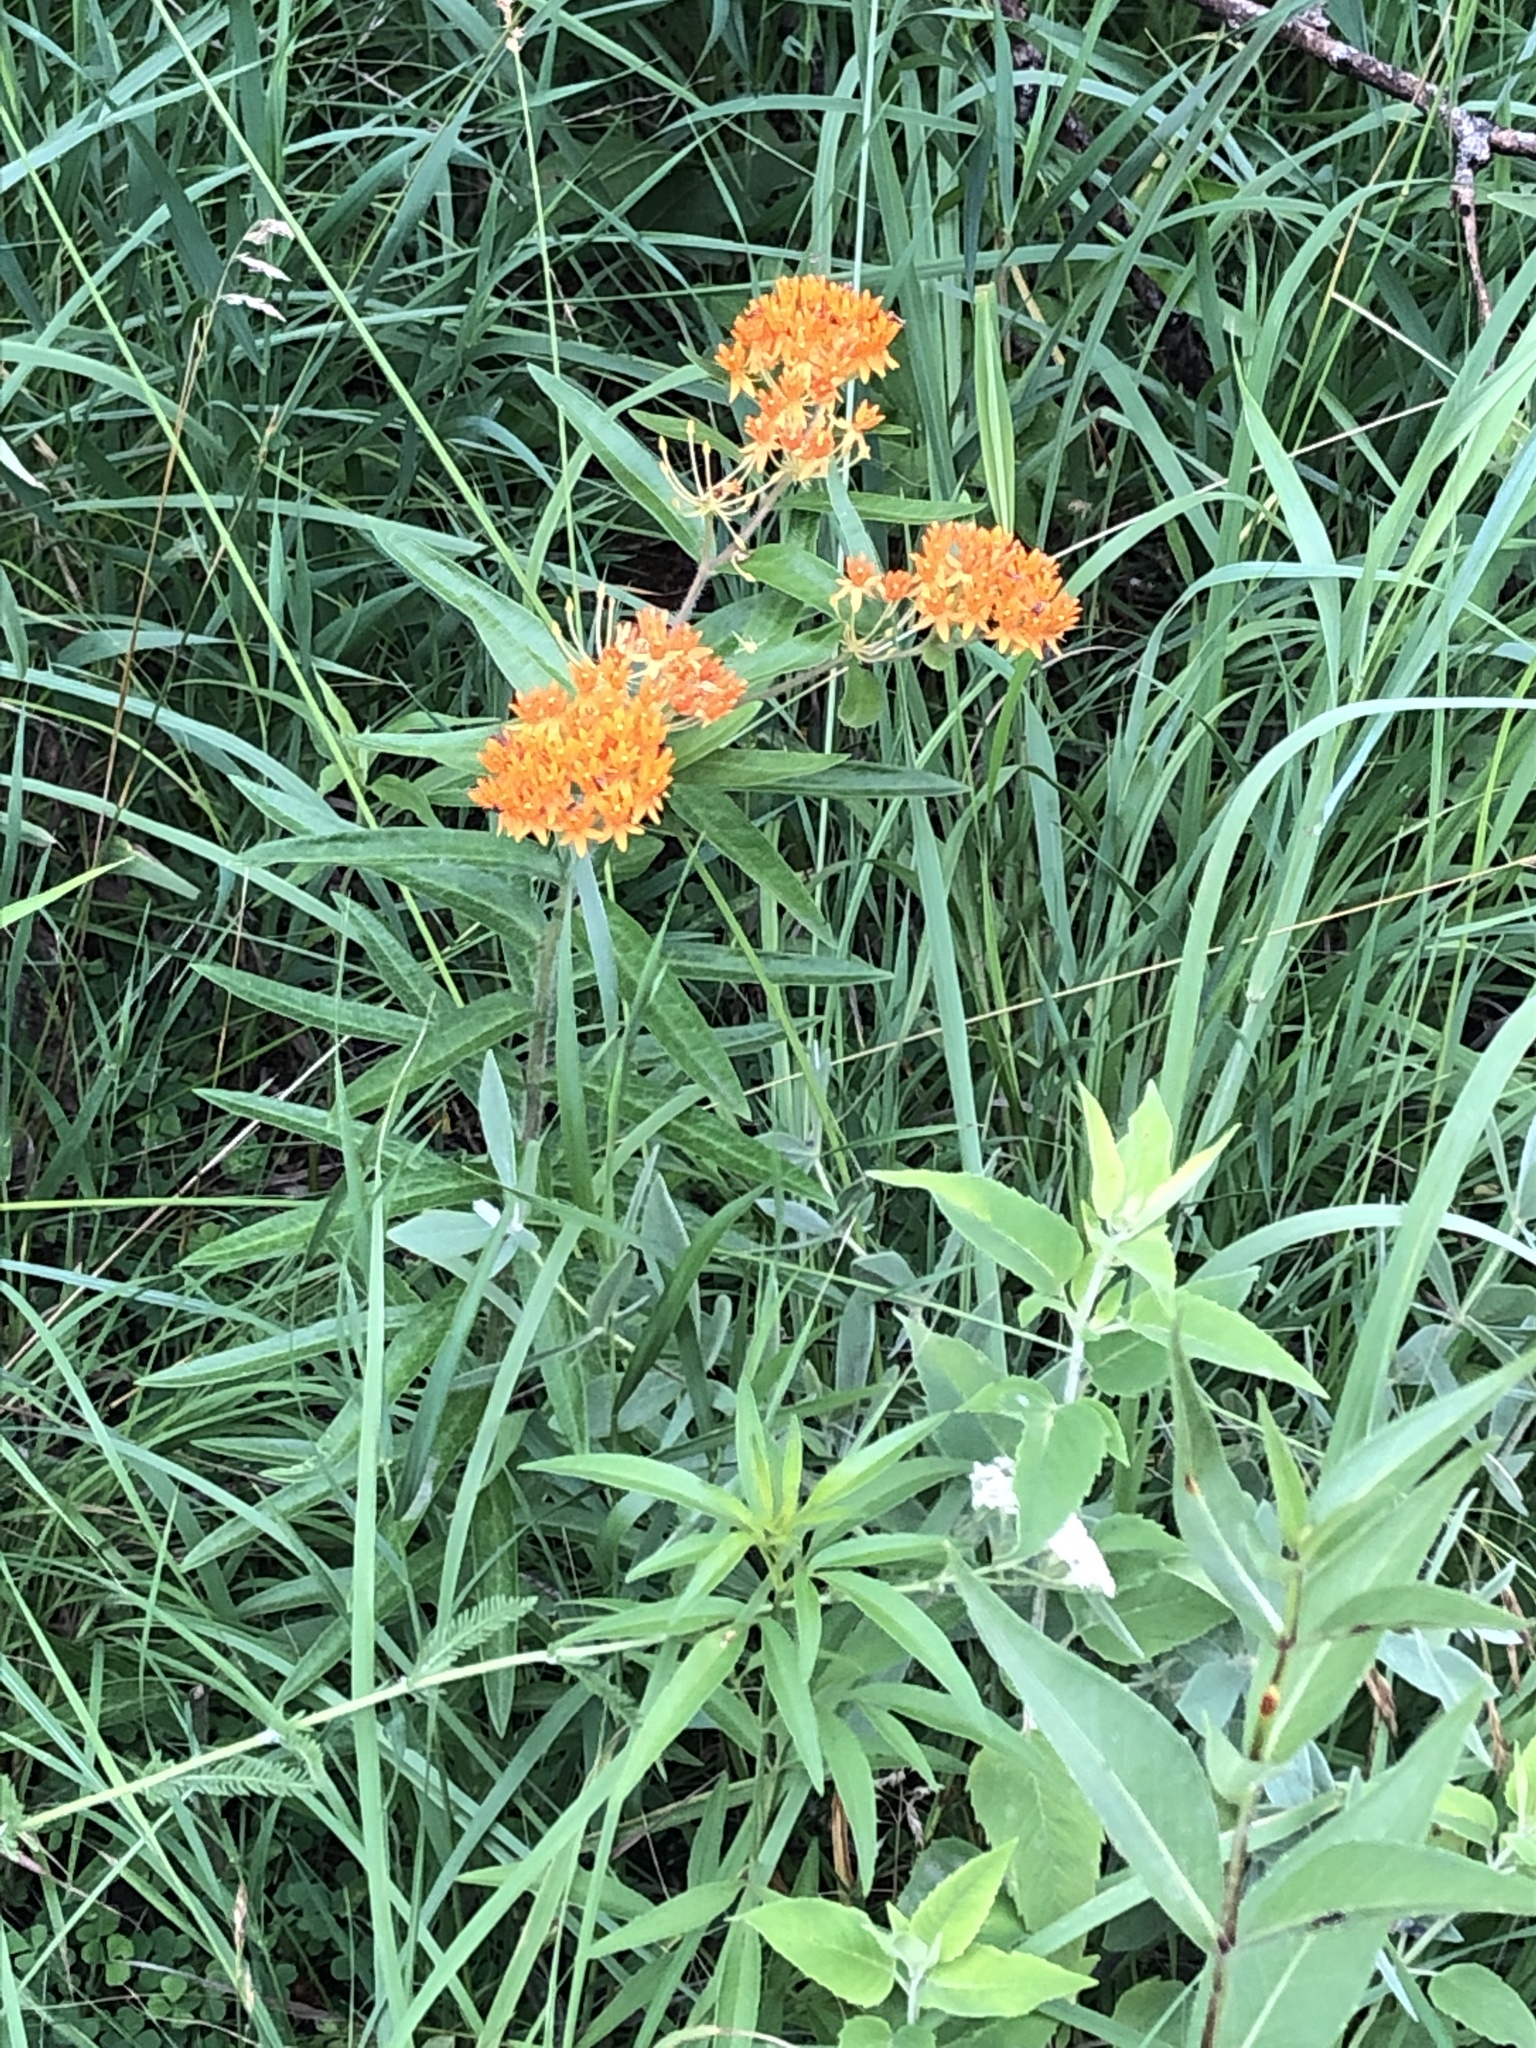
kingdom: Plantae
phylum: Tracheophyta
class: Magnoliopsida
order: Gentianales
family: Apocynaceae
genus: Asclepias
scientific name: Asclepias tuberosa
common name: Butterfly milkweed
